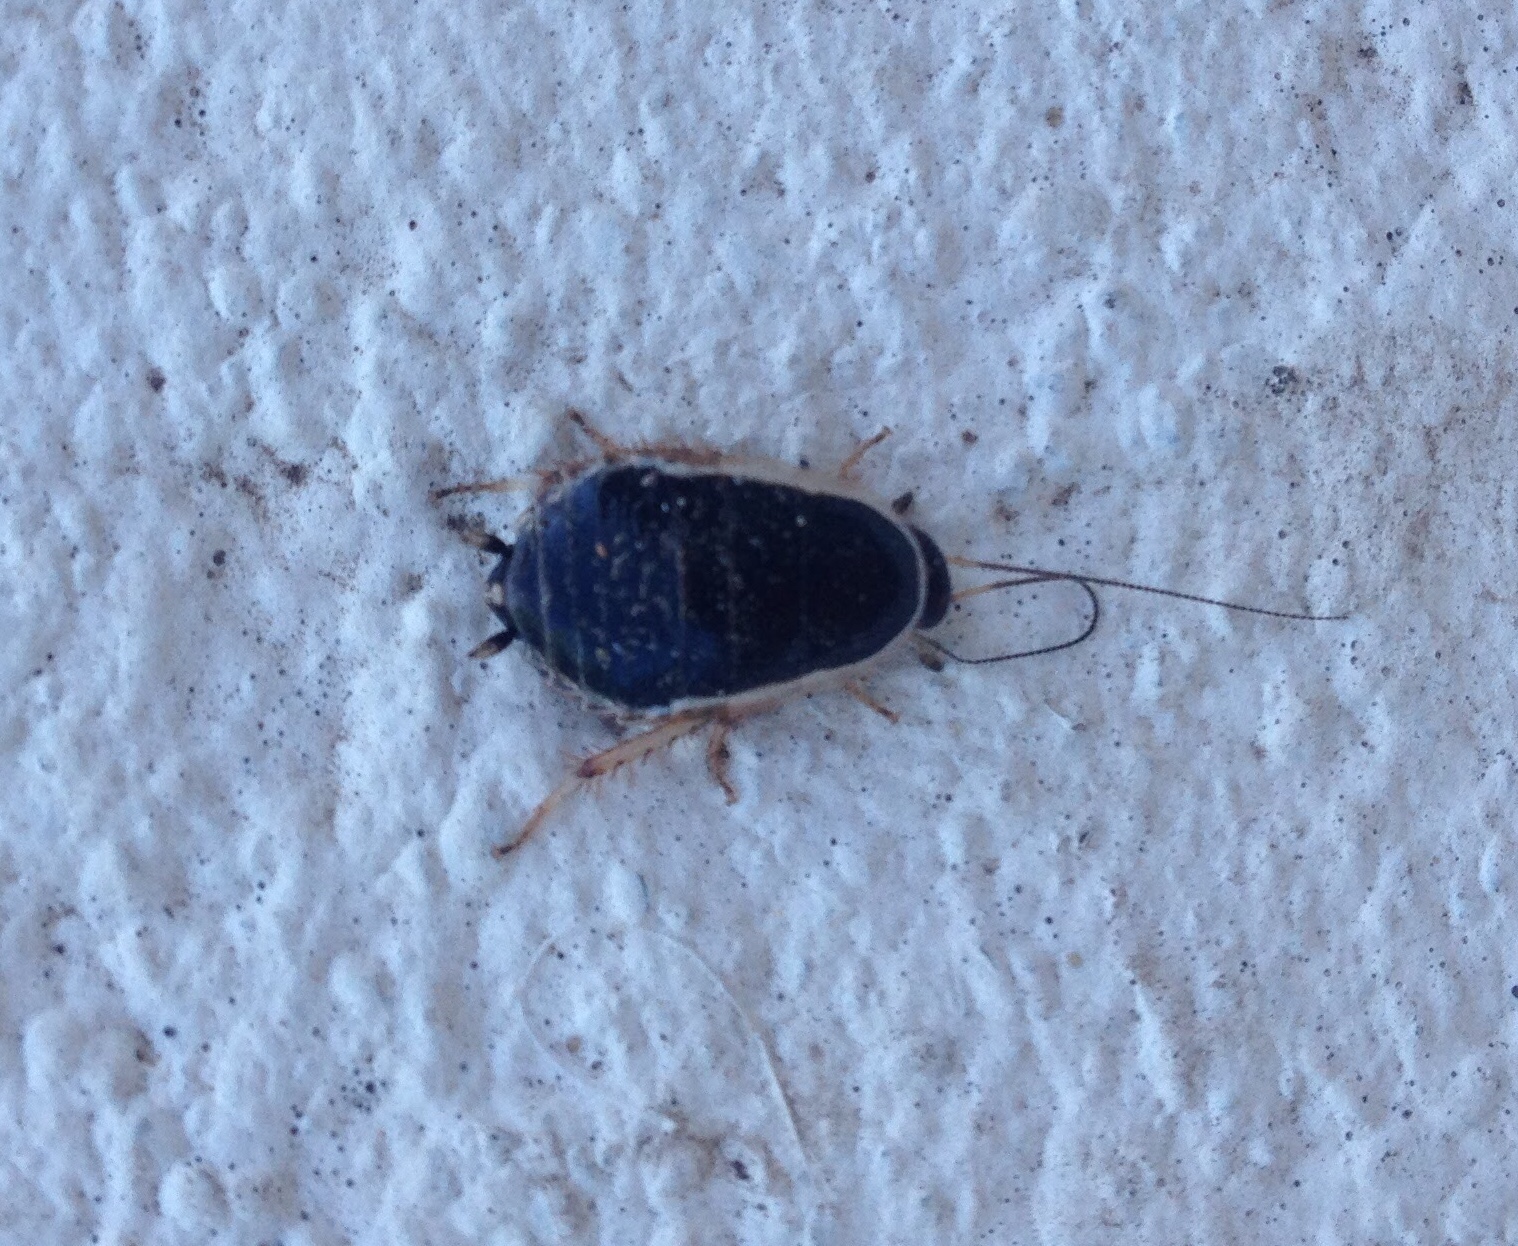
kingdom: Animalia
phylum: Arthropoda
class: Insecta
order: Blattodea
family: Ectobiidae
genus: Agmoblatta
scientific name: Agmoblatta thaxteri
